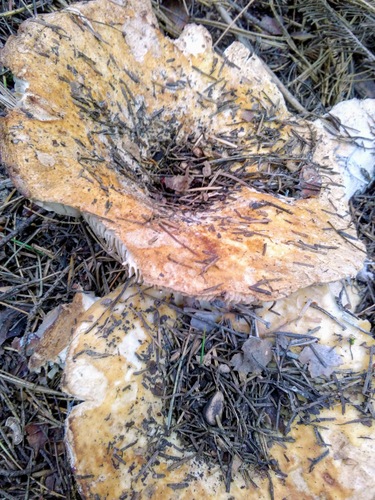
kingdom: Fungi
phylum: Basidiomycota
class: Agaricomycetes
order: Russulales
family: Russulaceae
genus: Russula
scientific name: Russula delica
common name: Milk white brittlegill
